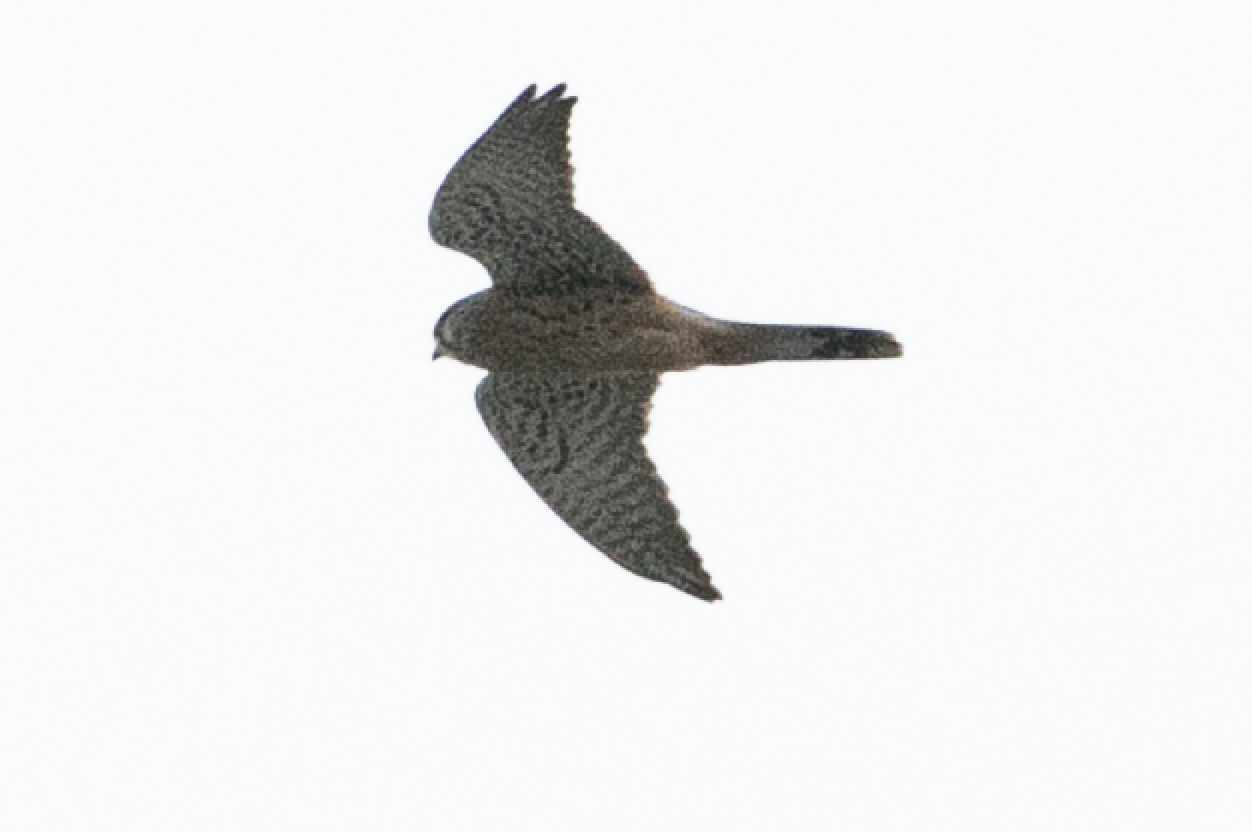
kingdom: Animalia
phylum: Chordata
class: Aves
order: Falconiformes
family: Falconidae
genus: Falco
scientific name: Falco tinnunculus
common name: Common kestrel
